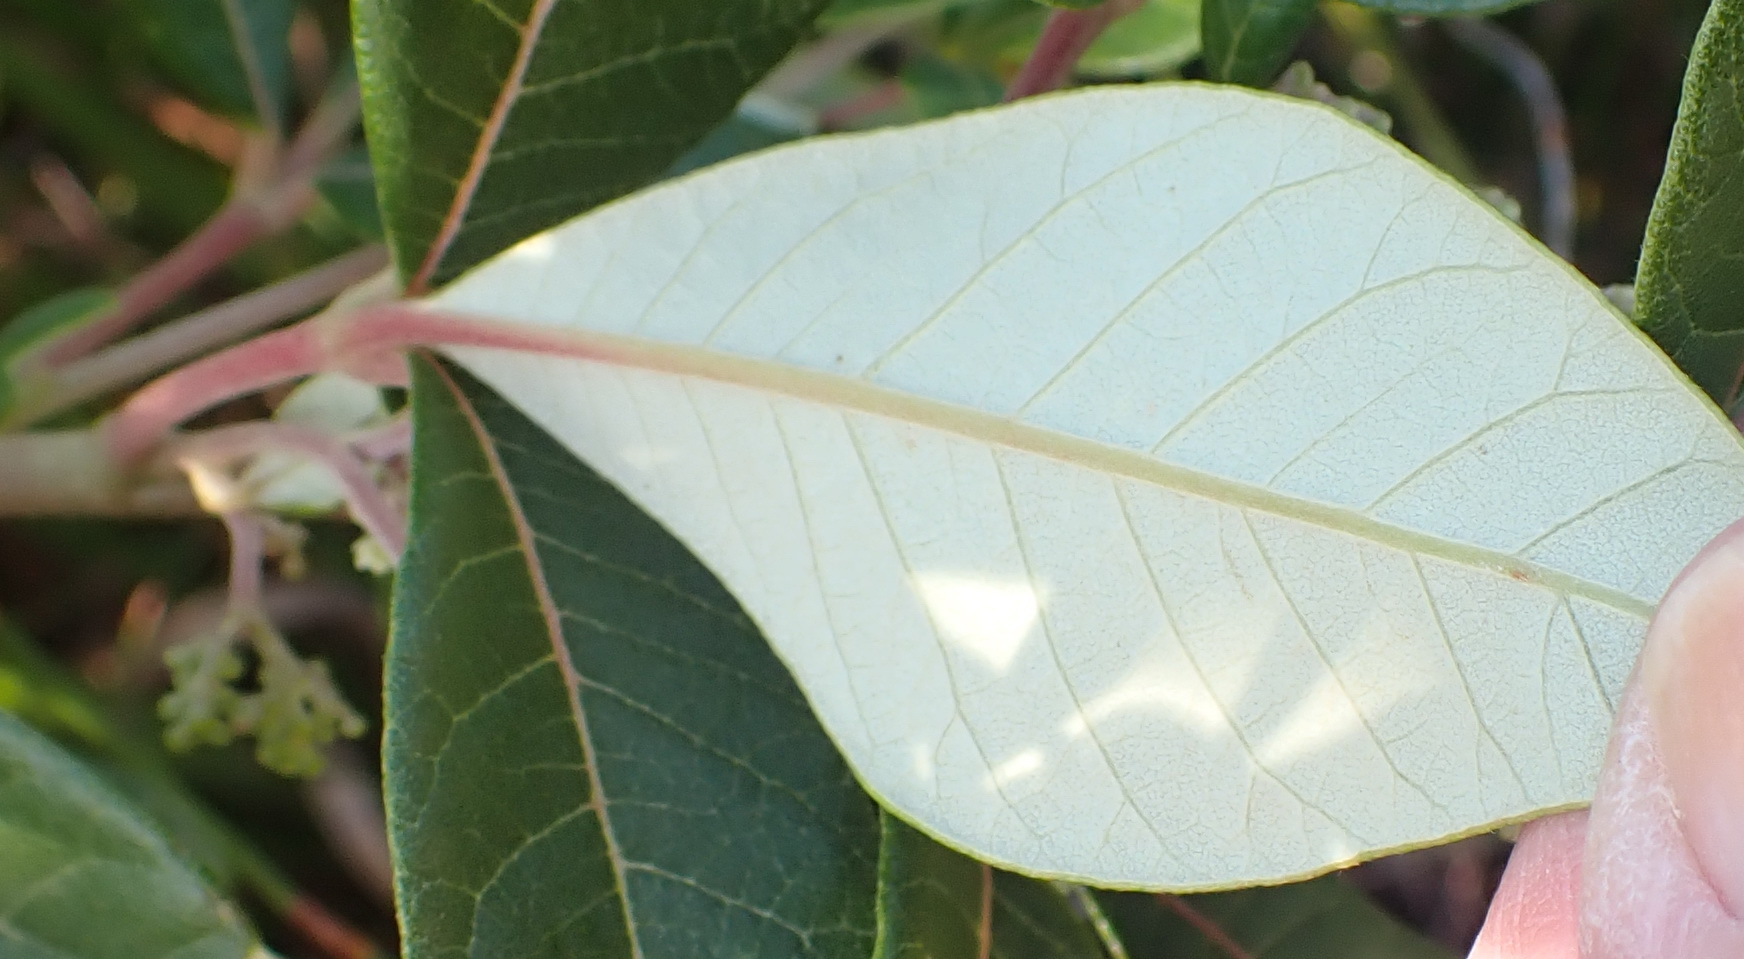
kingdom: Plantae
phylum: Tracheophyta
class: Magnoliopsida
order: Sapindales
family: Anacardiaceae
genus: Searsia
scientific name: Searsia tomentosa
